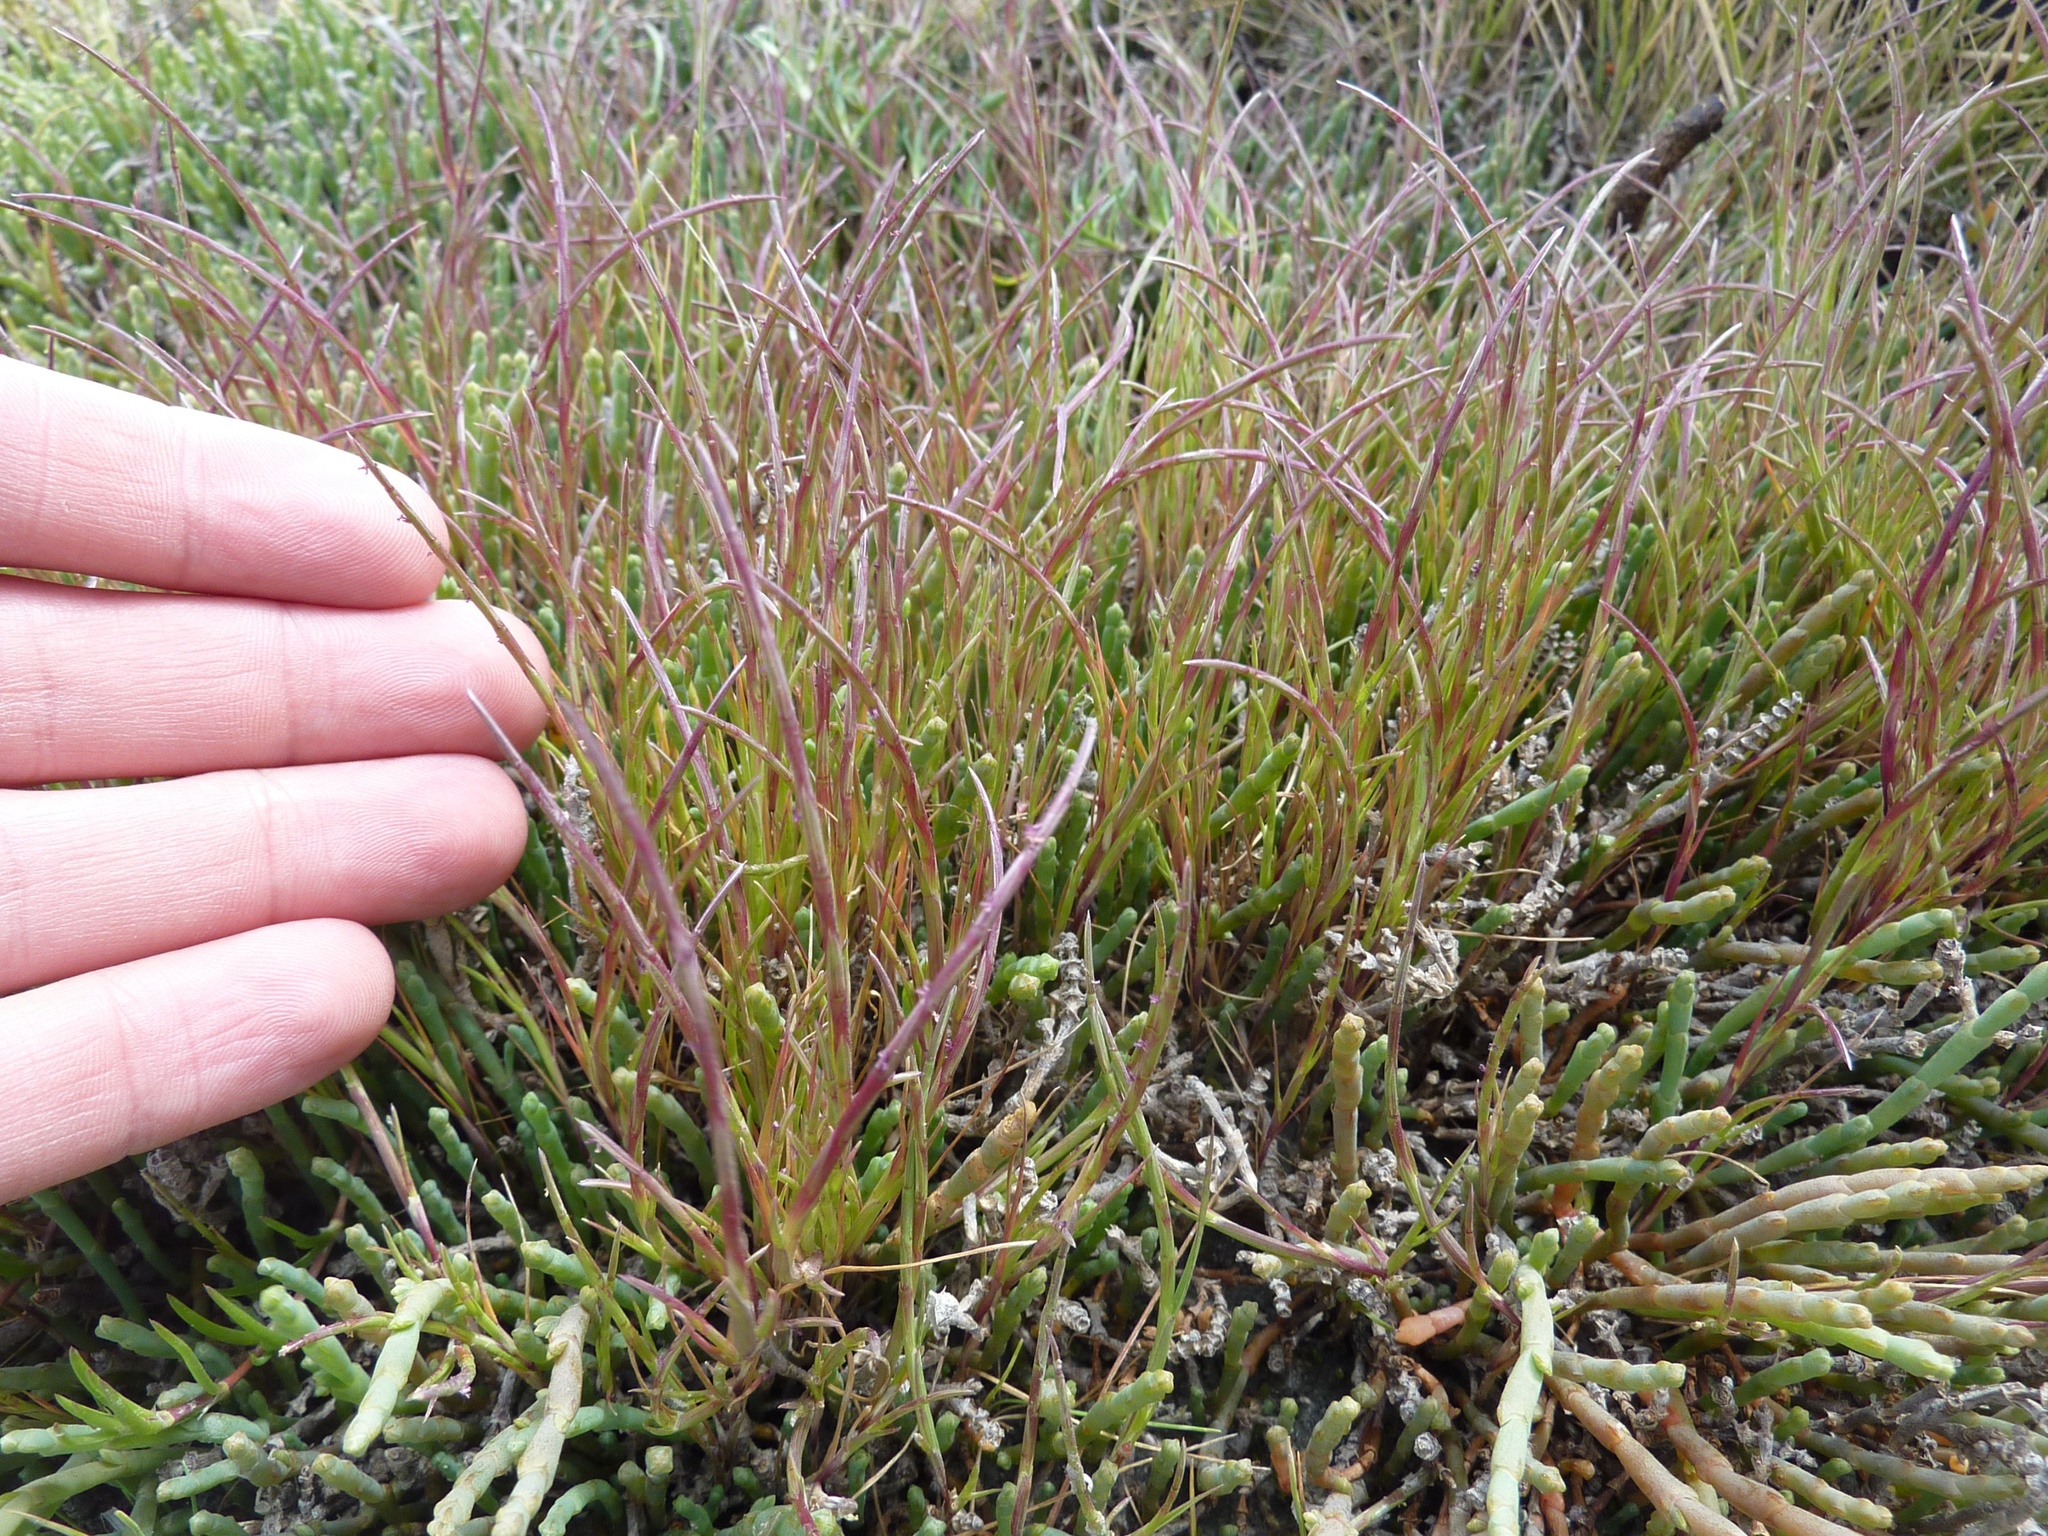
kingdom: Plantae
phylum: Tracheophyta
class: Liliopsida
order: Poales
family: Poaceae
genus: Parapholis
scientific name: Parapholis incurva
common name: Curved sicklegrass
